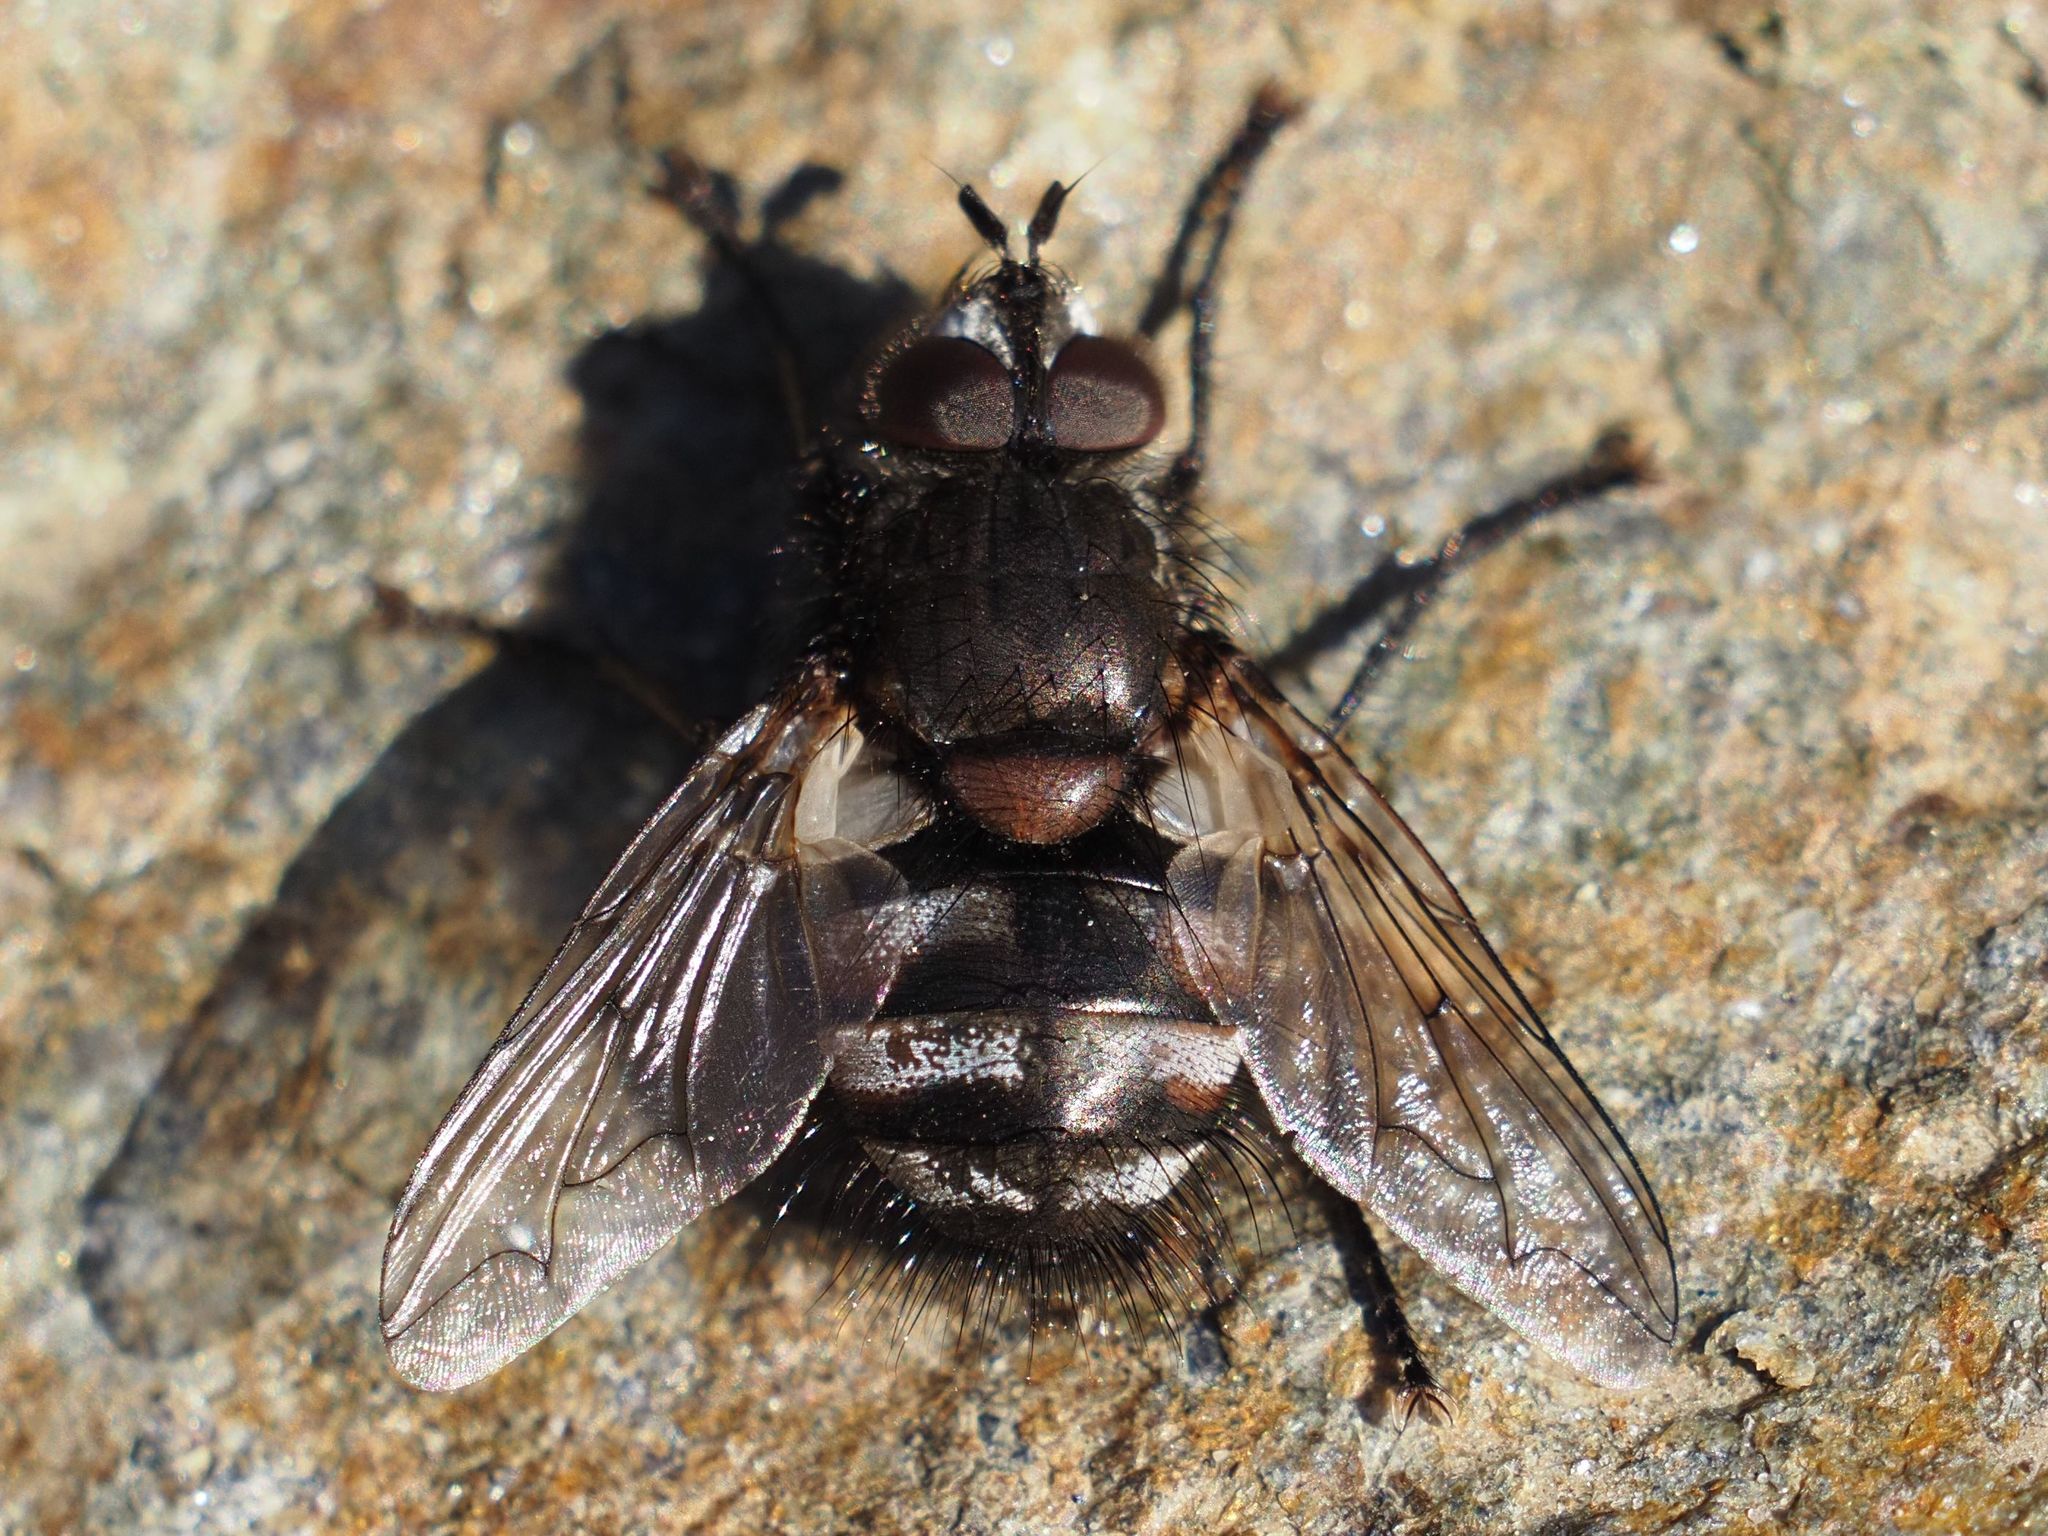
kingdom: Animalia
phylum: Arthropoda
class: Insecta
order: Diptera
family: Tachinidae
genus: Panzeria
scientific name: Panzeria puparum
